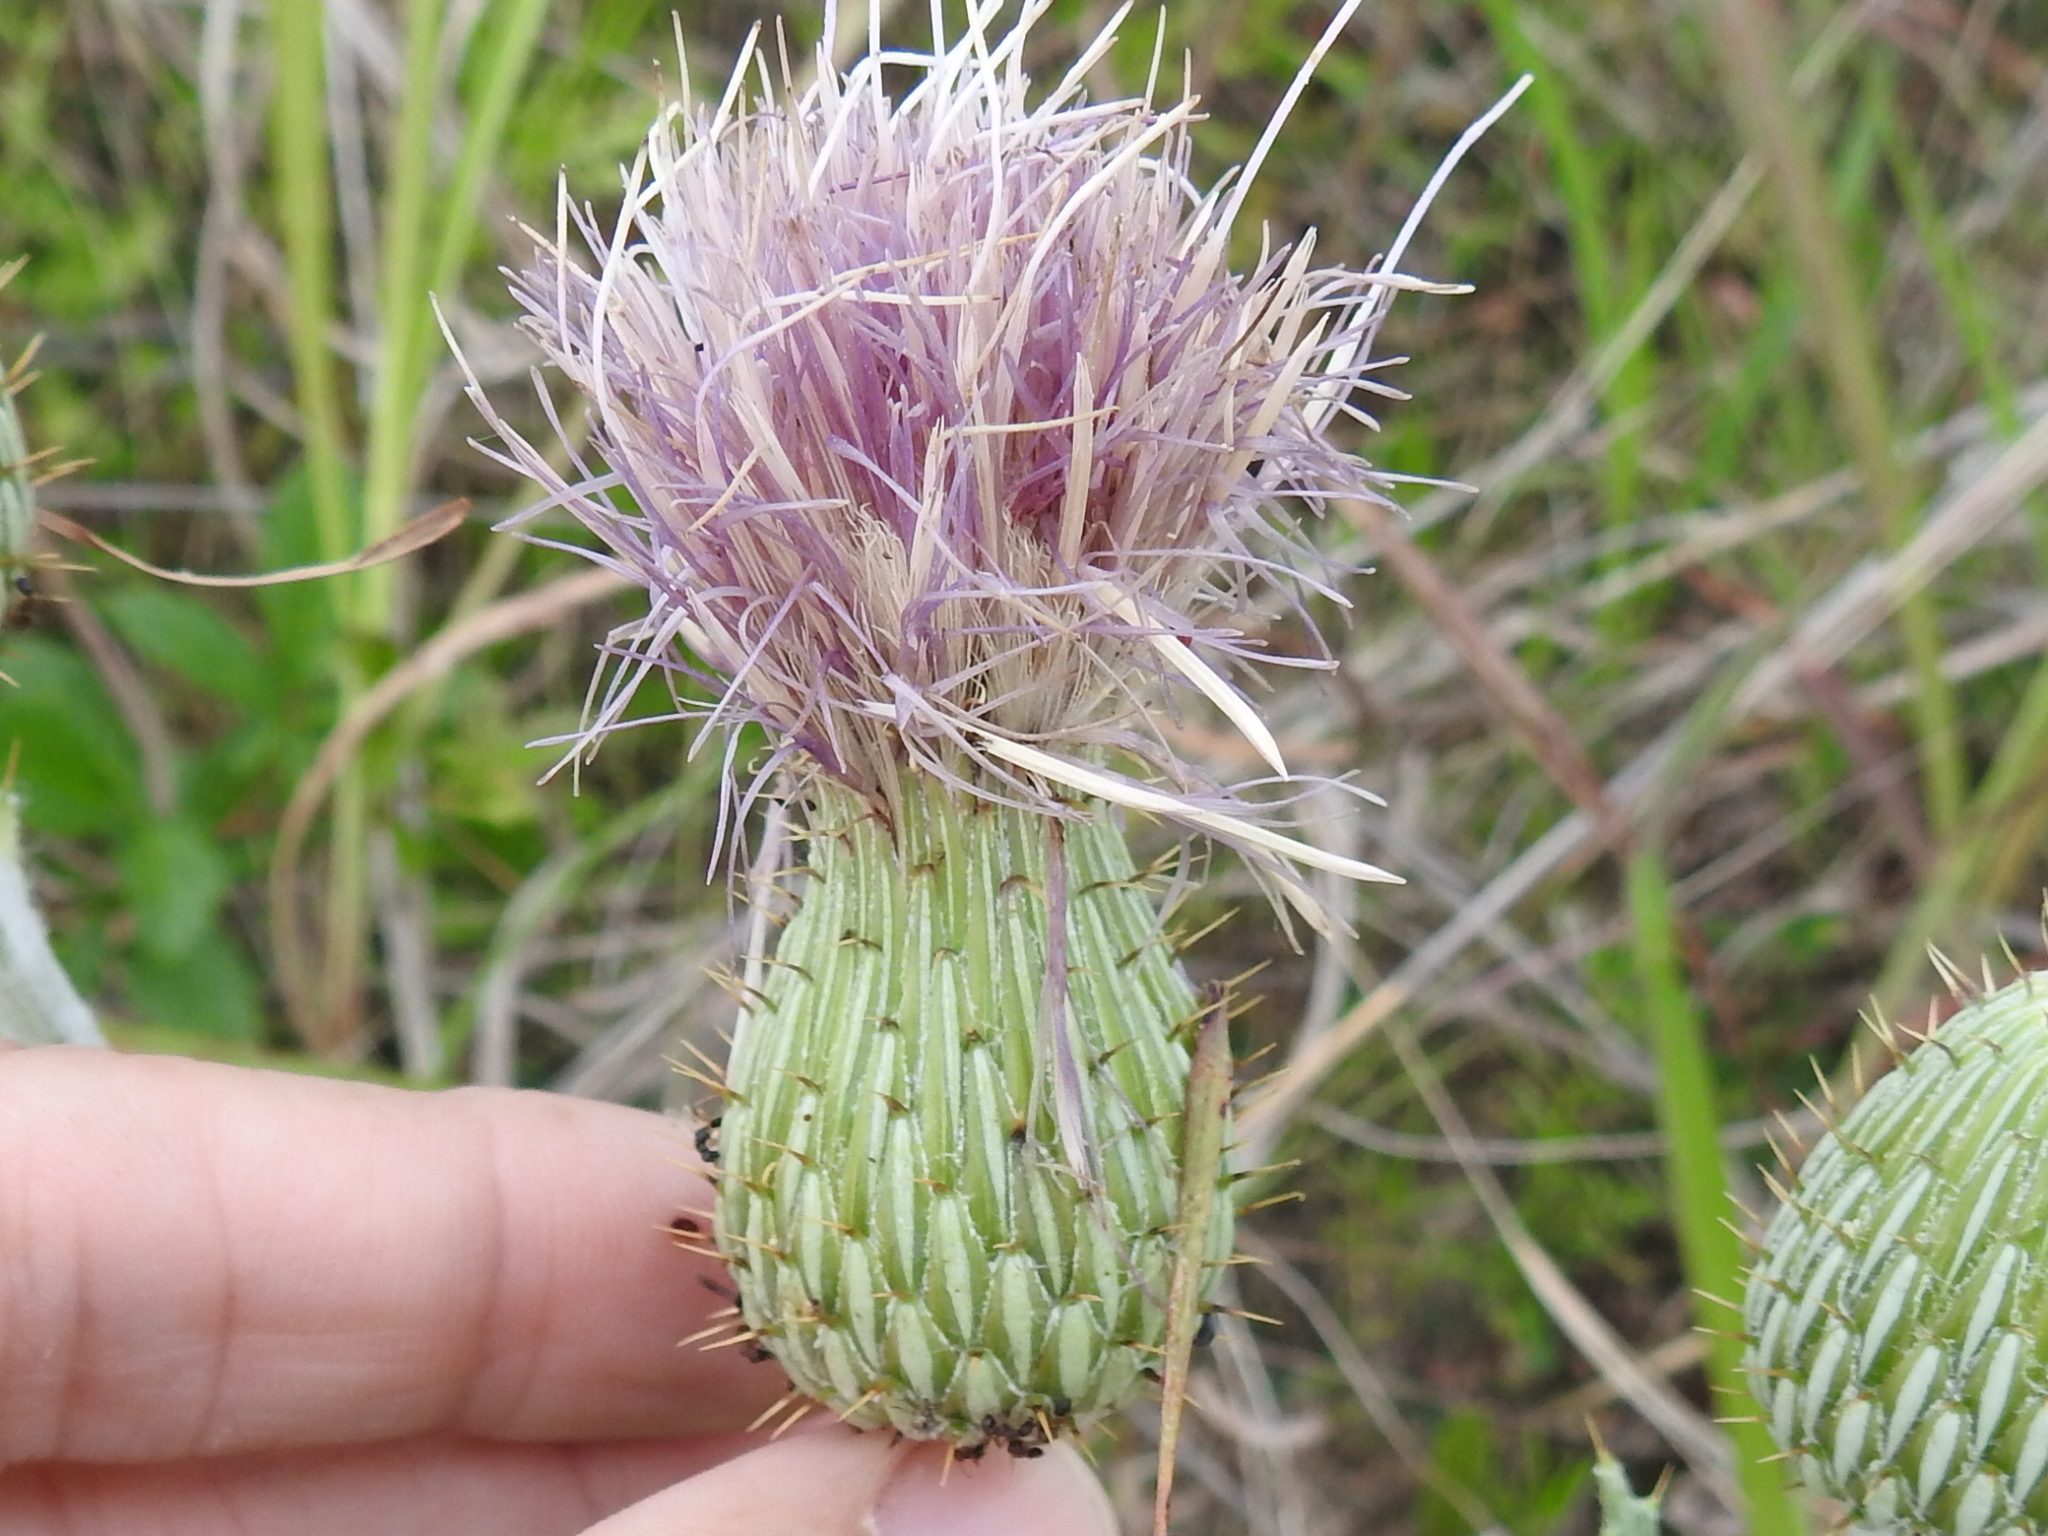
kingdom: Plantae
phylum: Tracheophyta
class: Magnoliopsida
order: Asterales
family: Asteraceae
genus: Cirsium
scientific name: Cirsium undulatum
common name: Pasture thistle
